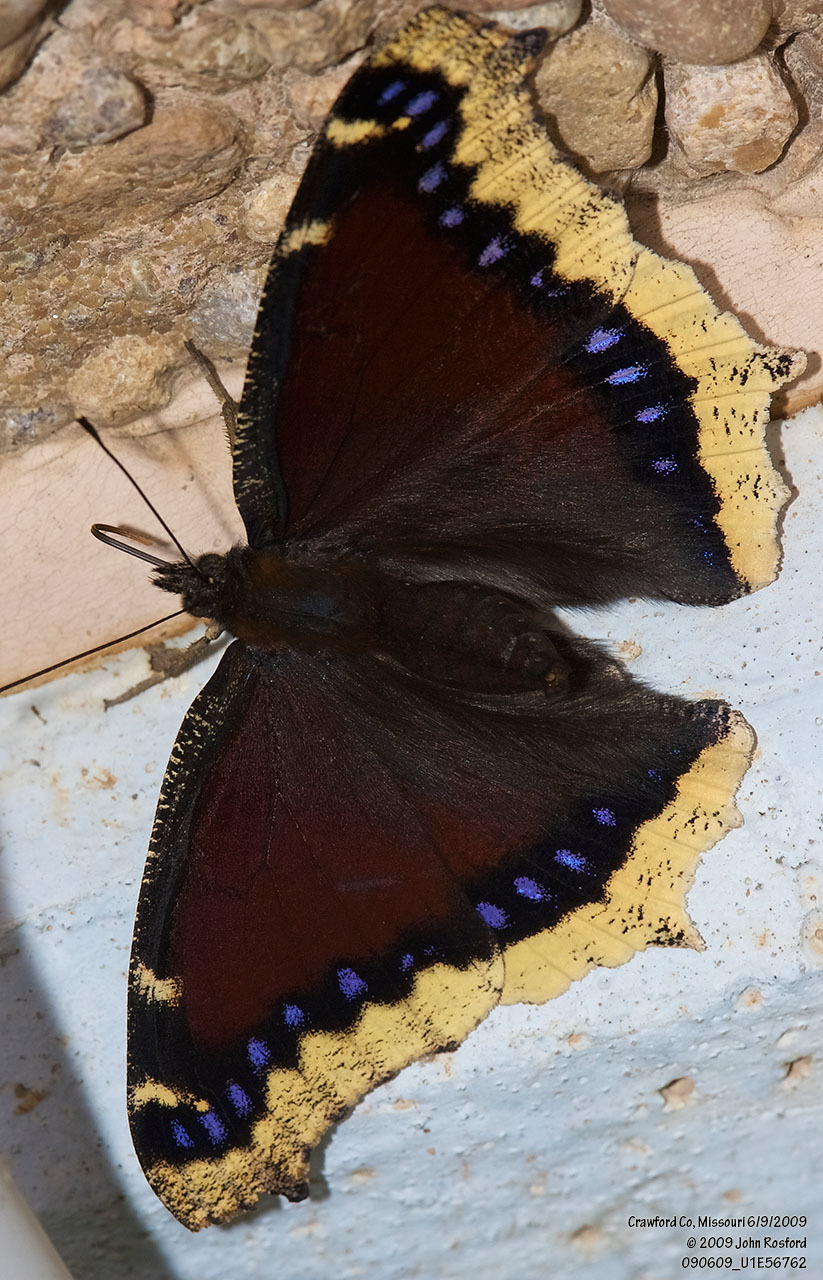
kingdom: Animalia
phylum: Arthropoda
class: Insecta
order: Lepidoptera
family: Nymphalidae
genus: Nymphalis
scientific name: Nymphalis antiopa
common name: Camberwell beauty
